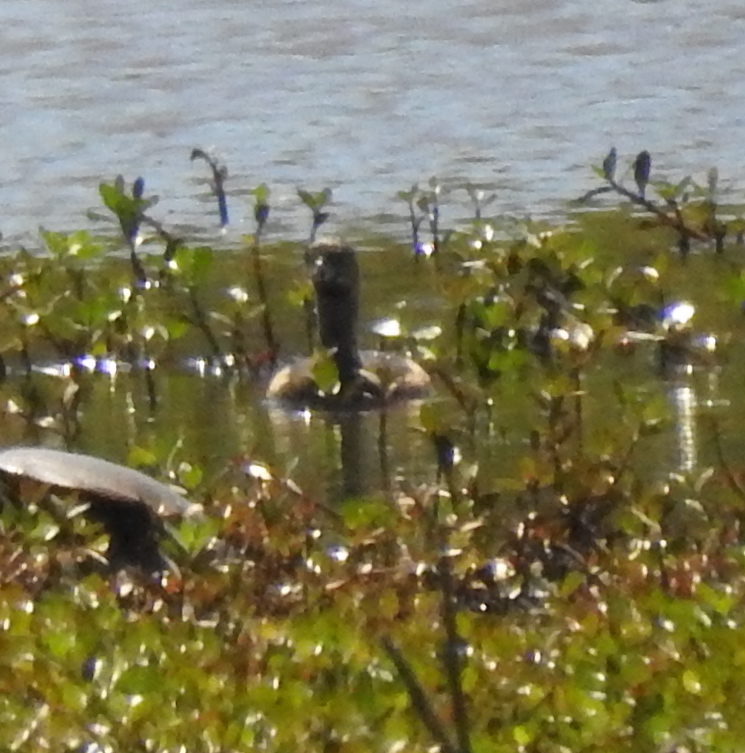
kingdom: Animalia
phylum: Chordata
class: Aves
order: Podicipediformes
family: Podicipedidae
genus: Podilymbus
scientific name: Podilymbus podiceps
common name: Pied-billed grebe
